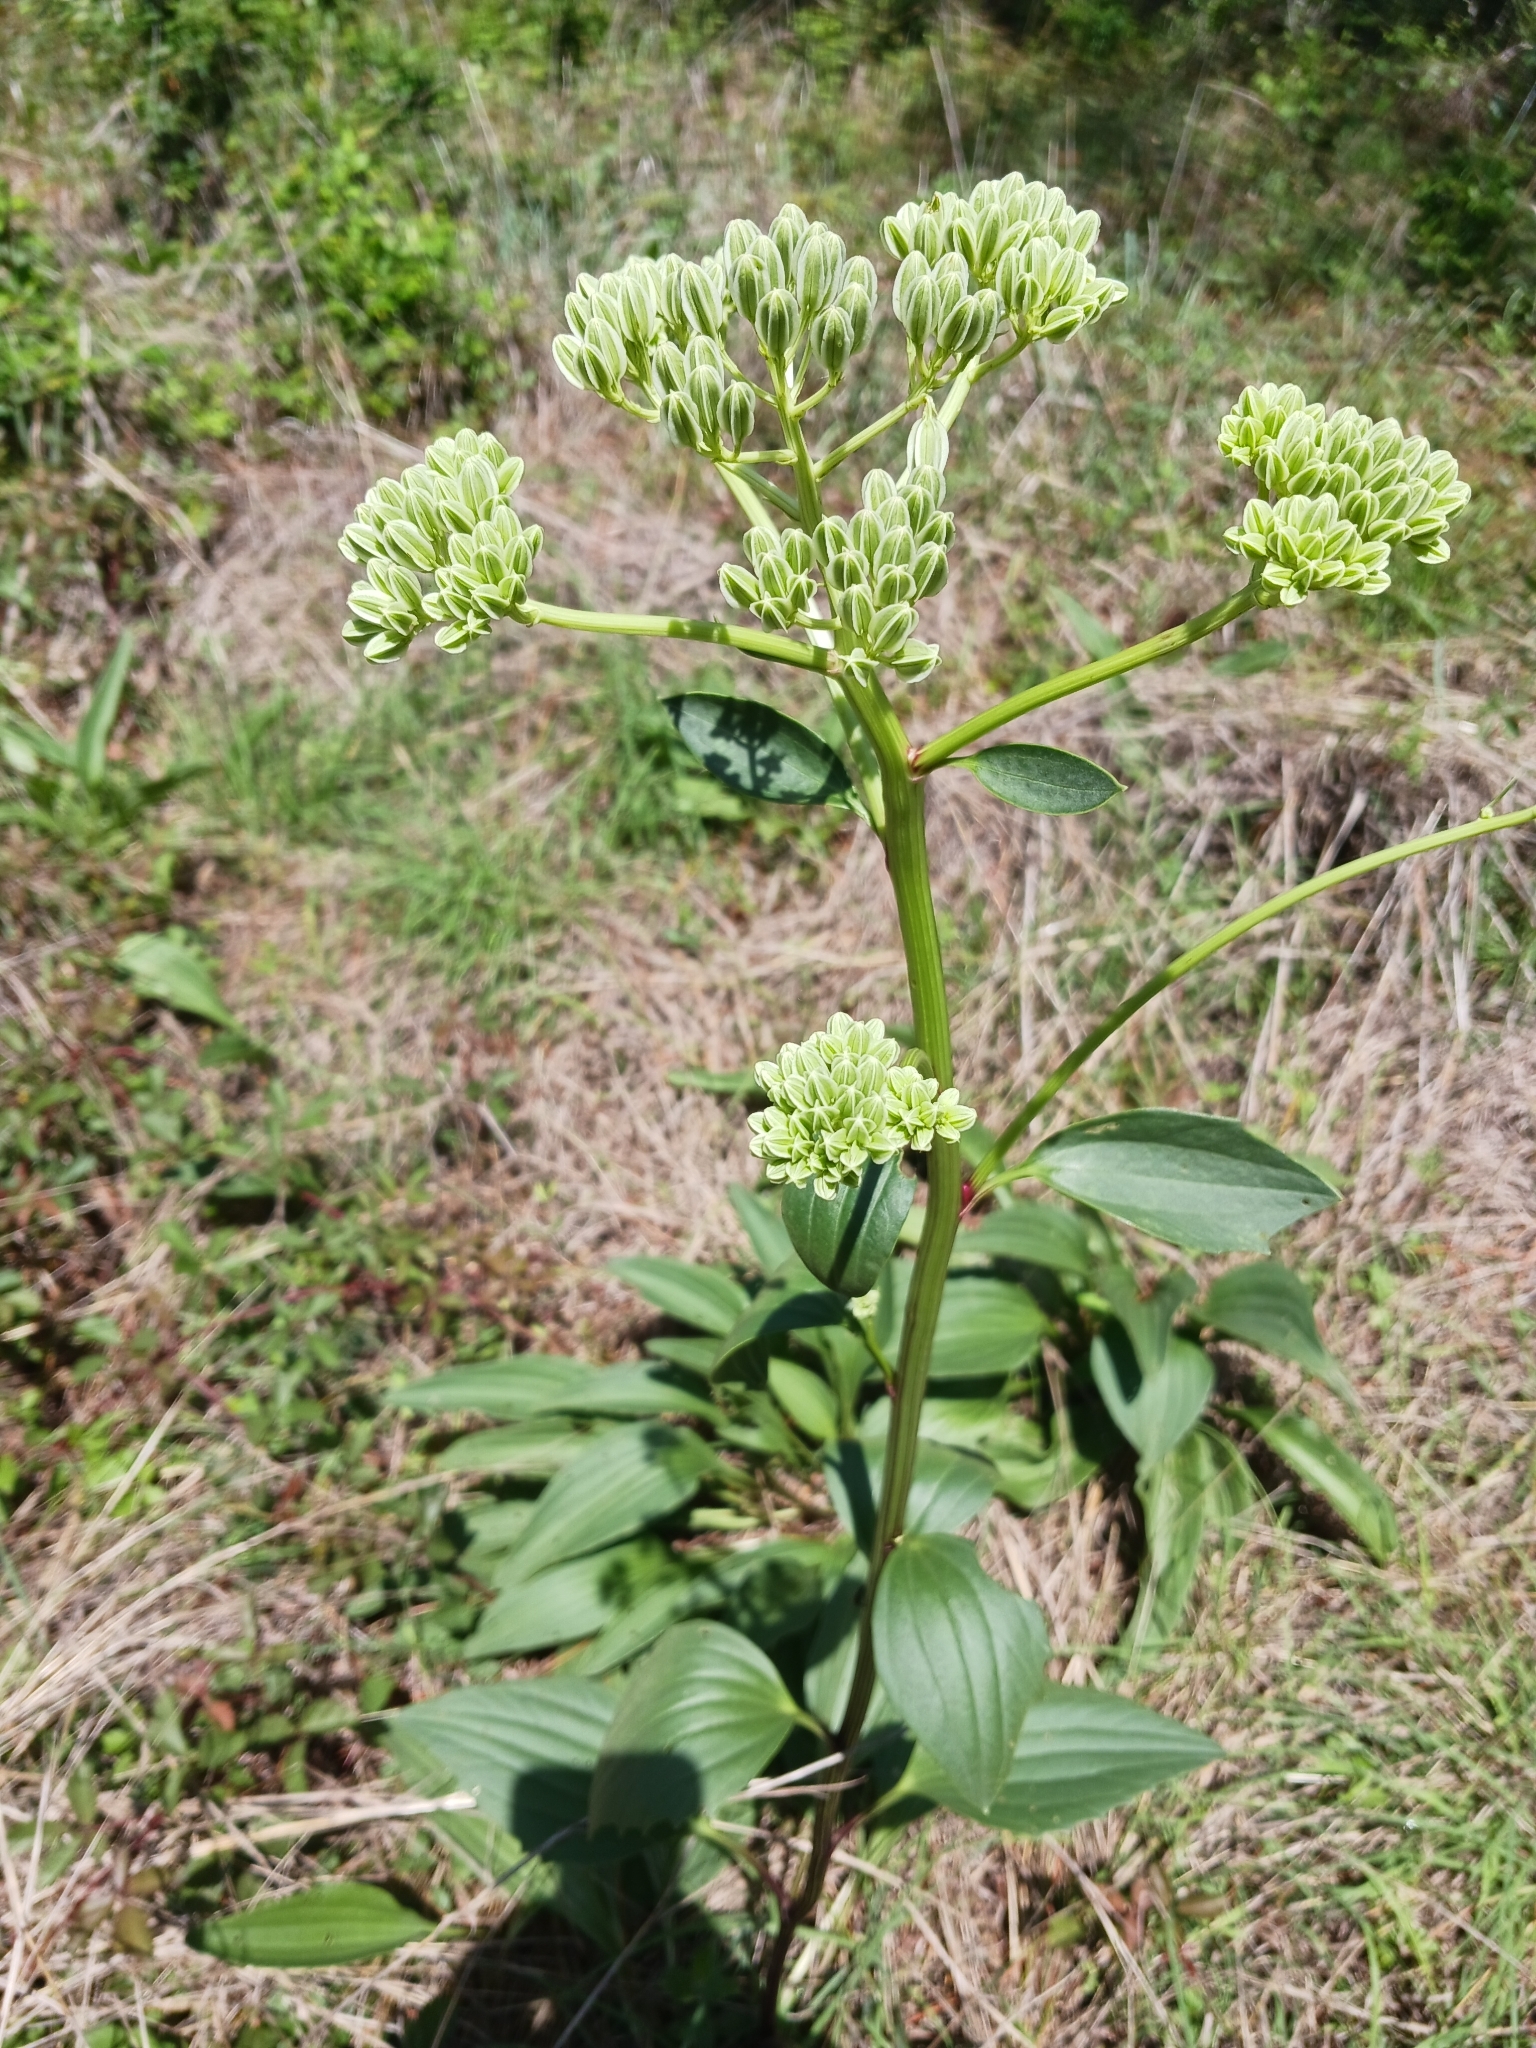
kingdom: Plantae
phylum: Tracheophyta
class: Magnoliopsida
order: Asterales
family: Asteraceae
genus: Arnoglossum
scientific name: Arnoglossum plantagineum
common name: Groove-stemmed indian-plantain
